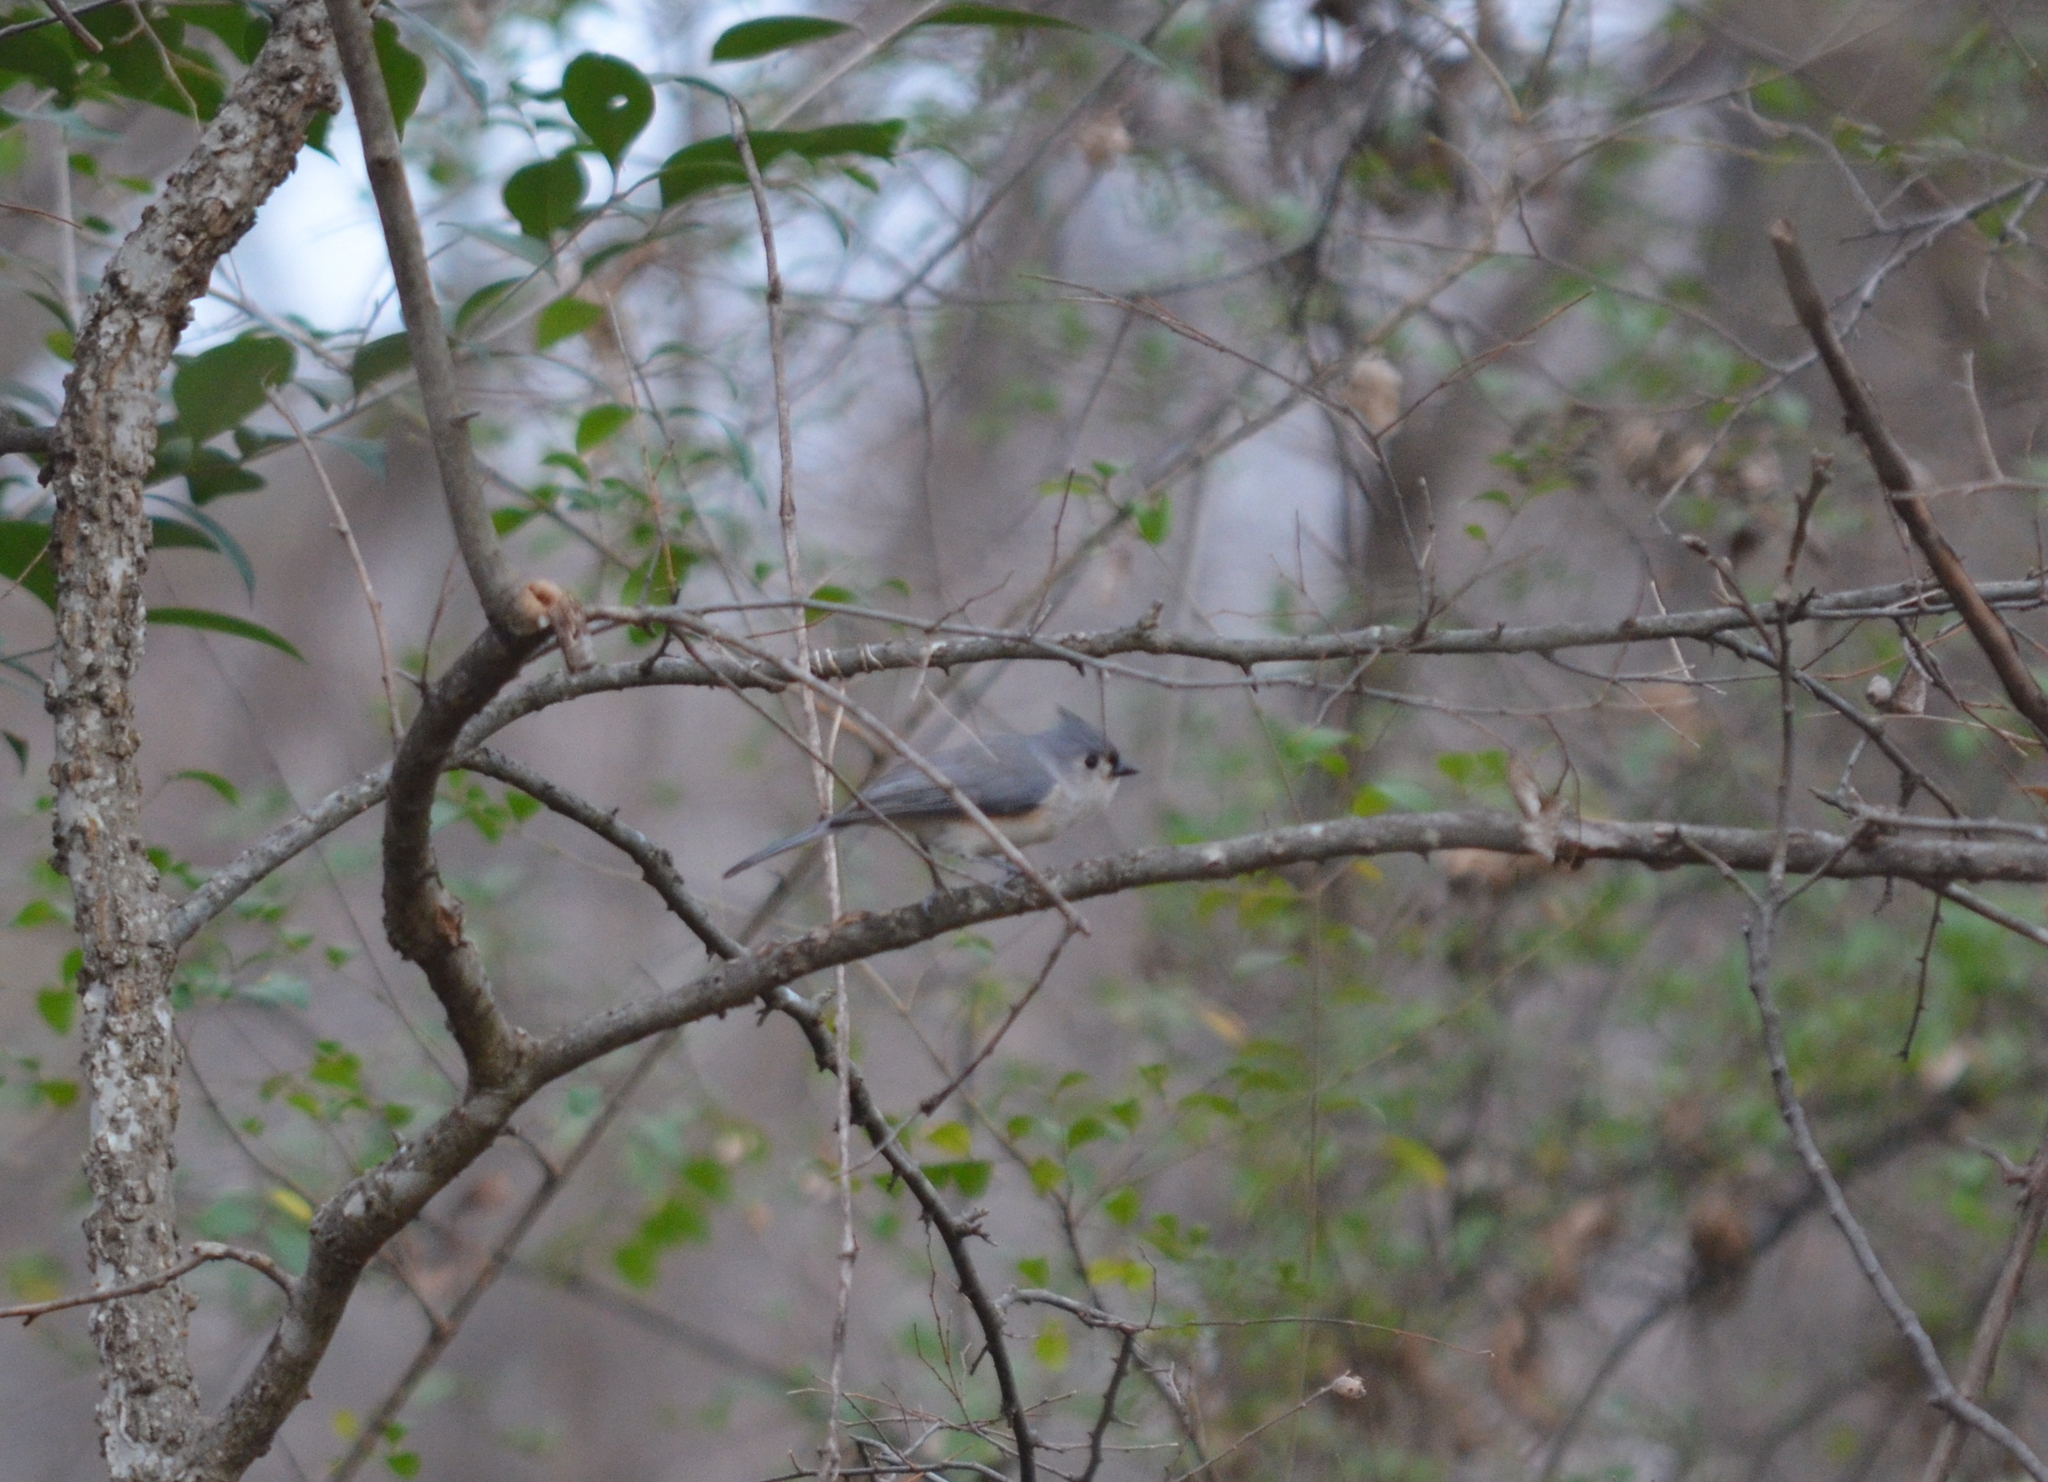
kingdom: Animalia
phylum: Chordata
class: Aves
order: Passeriformes
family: Paridae
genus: Baeolophus
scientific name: Baeolophus bicolor
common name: Tufted titmouse
